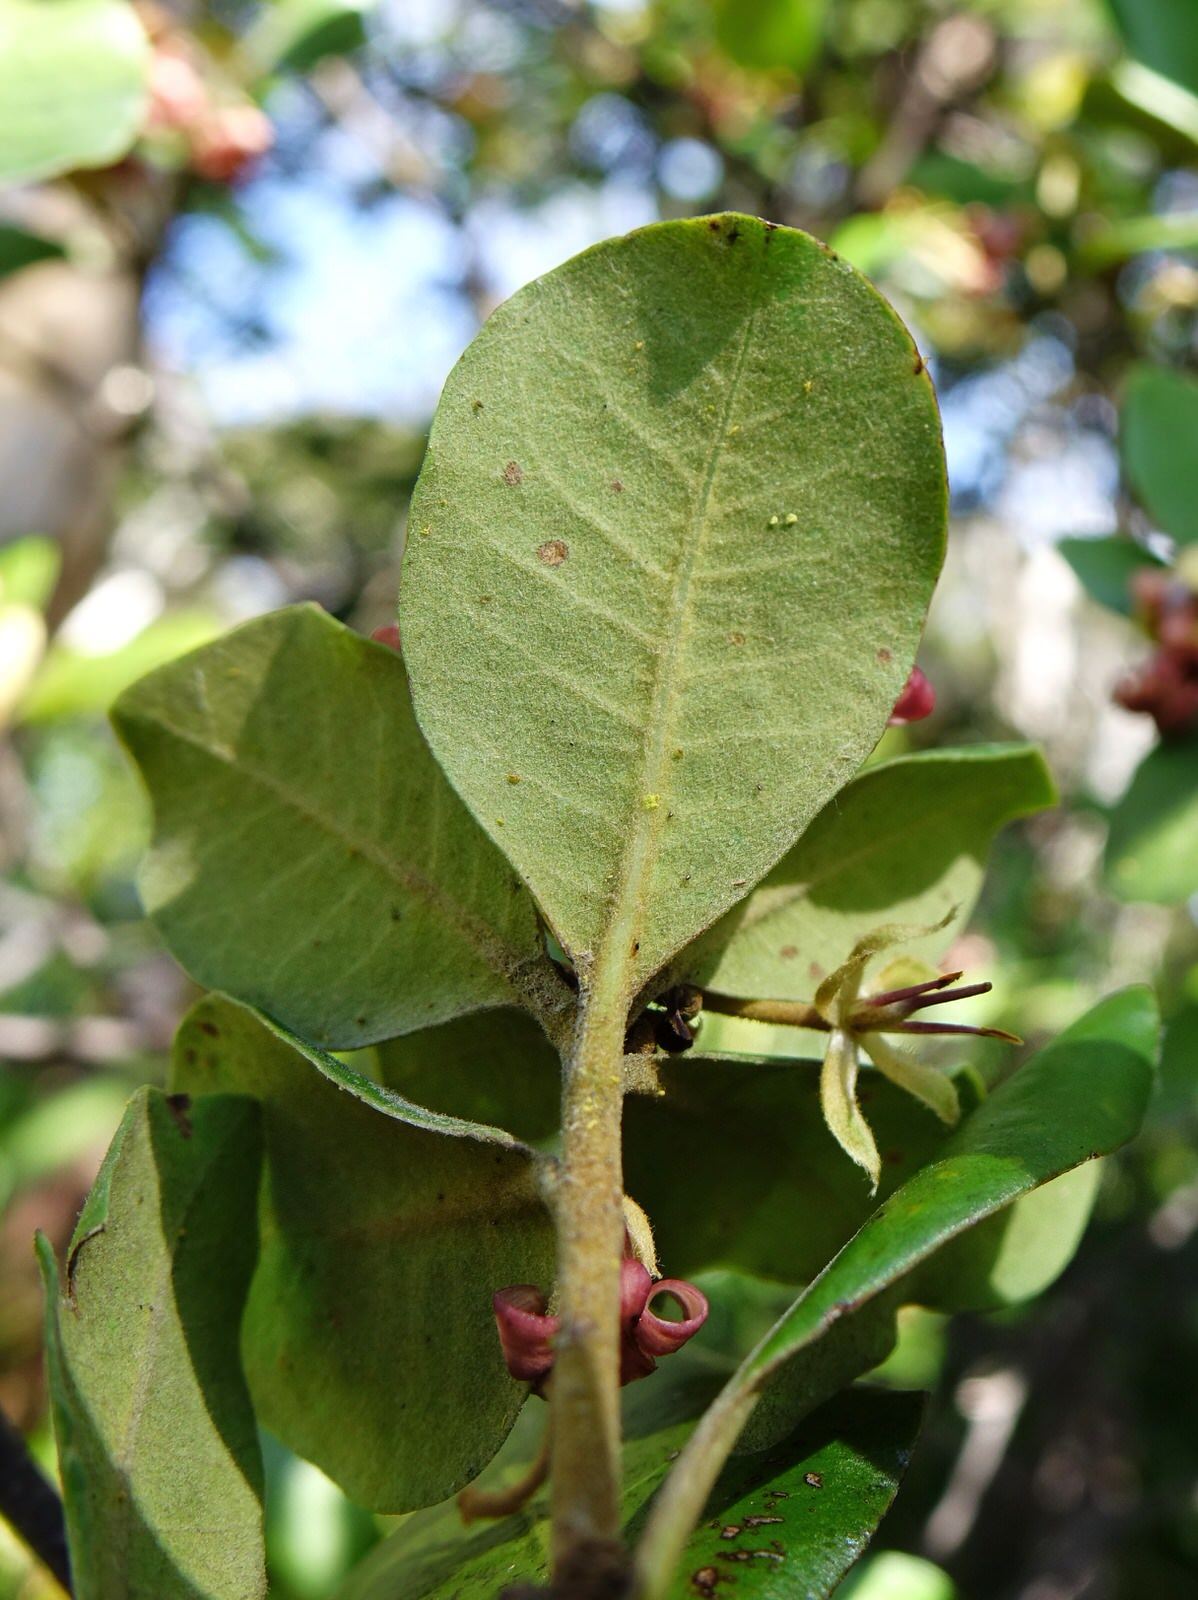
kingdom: Plantae
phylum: Tracheophyta
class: Magnoliopsida
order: Apiales
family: Pittosporaceae
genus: Pittosporum
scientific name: Pittosporum ellipticum
